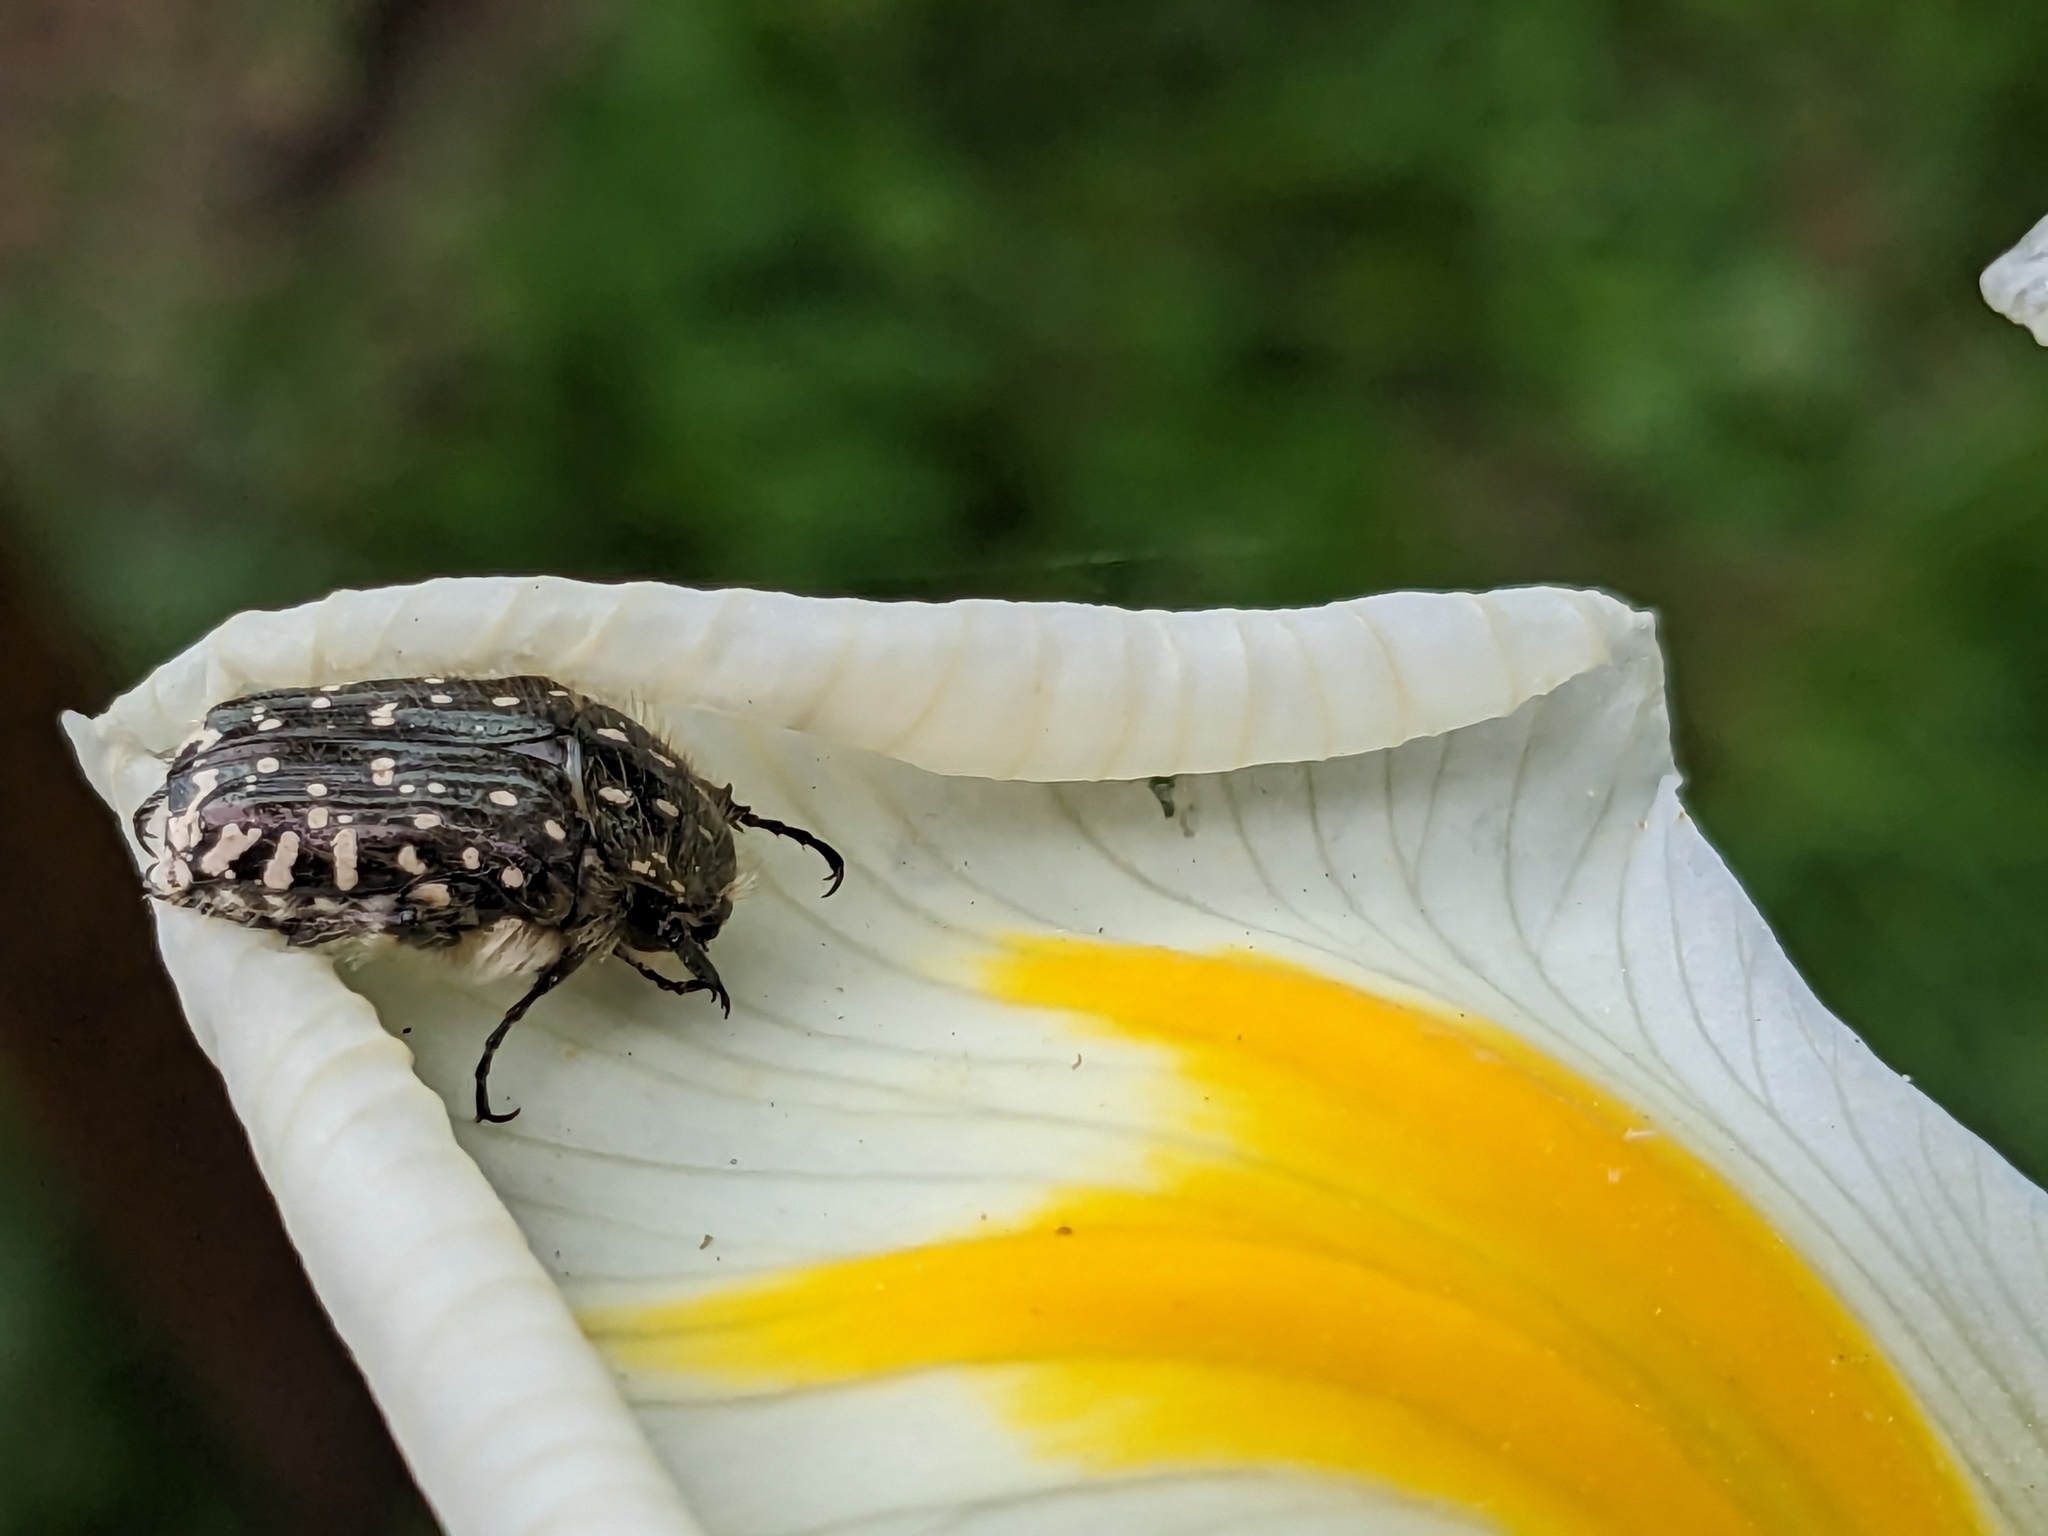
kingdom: Animalia
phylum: Arthropoda
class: Insecta
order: Coleoptera
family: Scarabaeidae
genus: Oxythyrea
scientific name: Oxythyrea funesta
